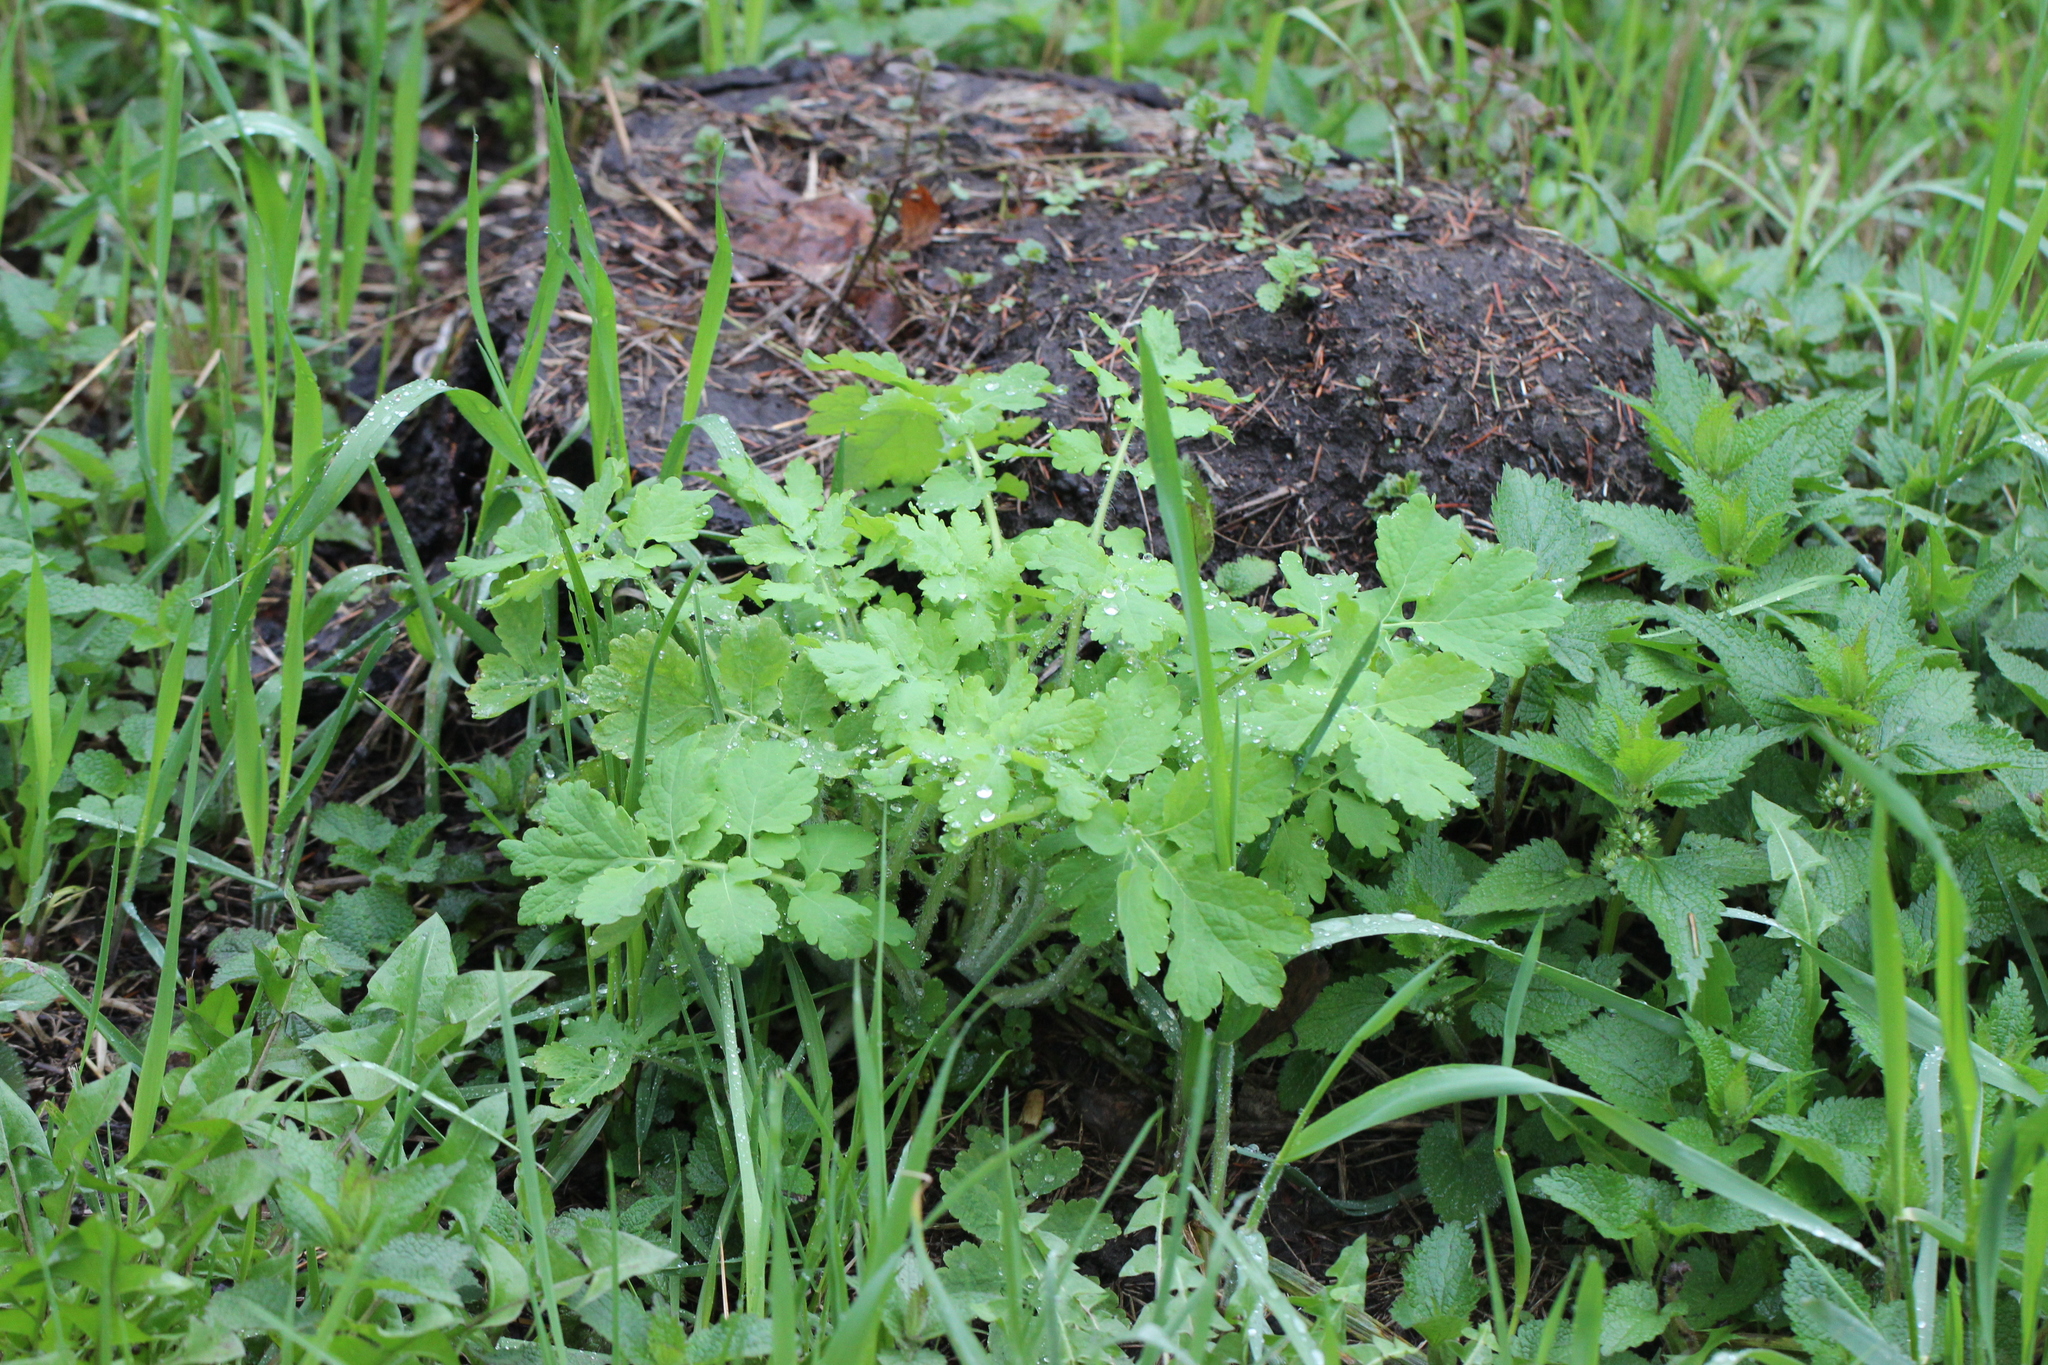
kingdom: Plantae
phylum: Tracheophyta
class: Magnoliopsida
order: Ranunculales
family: Papaveraceae
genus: Chelidonium
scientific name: Chelidonium majus
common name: Greater celandine
